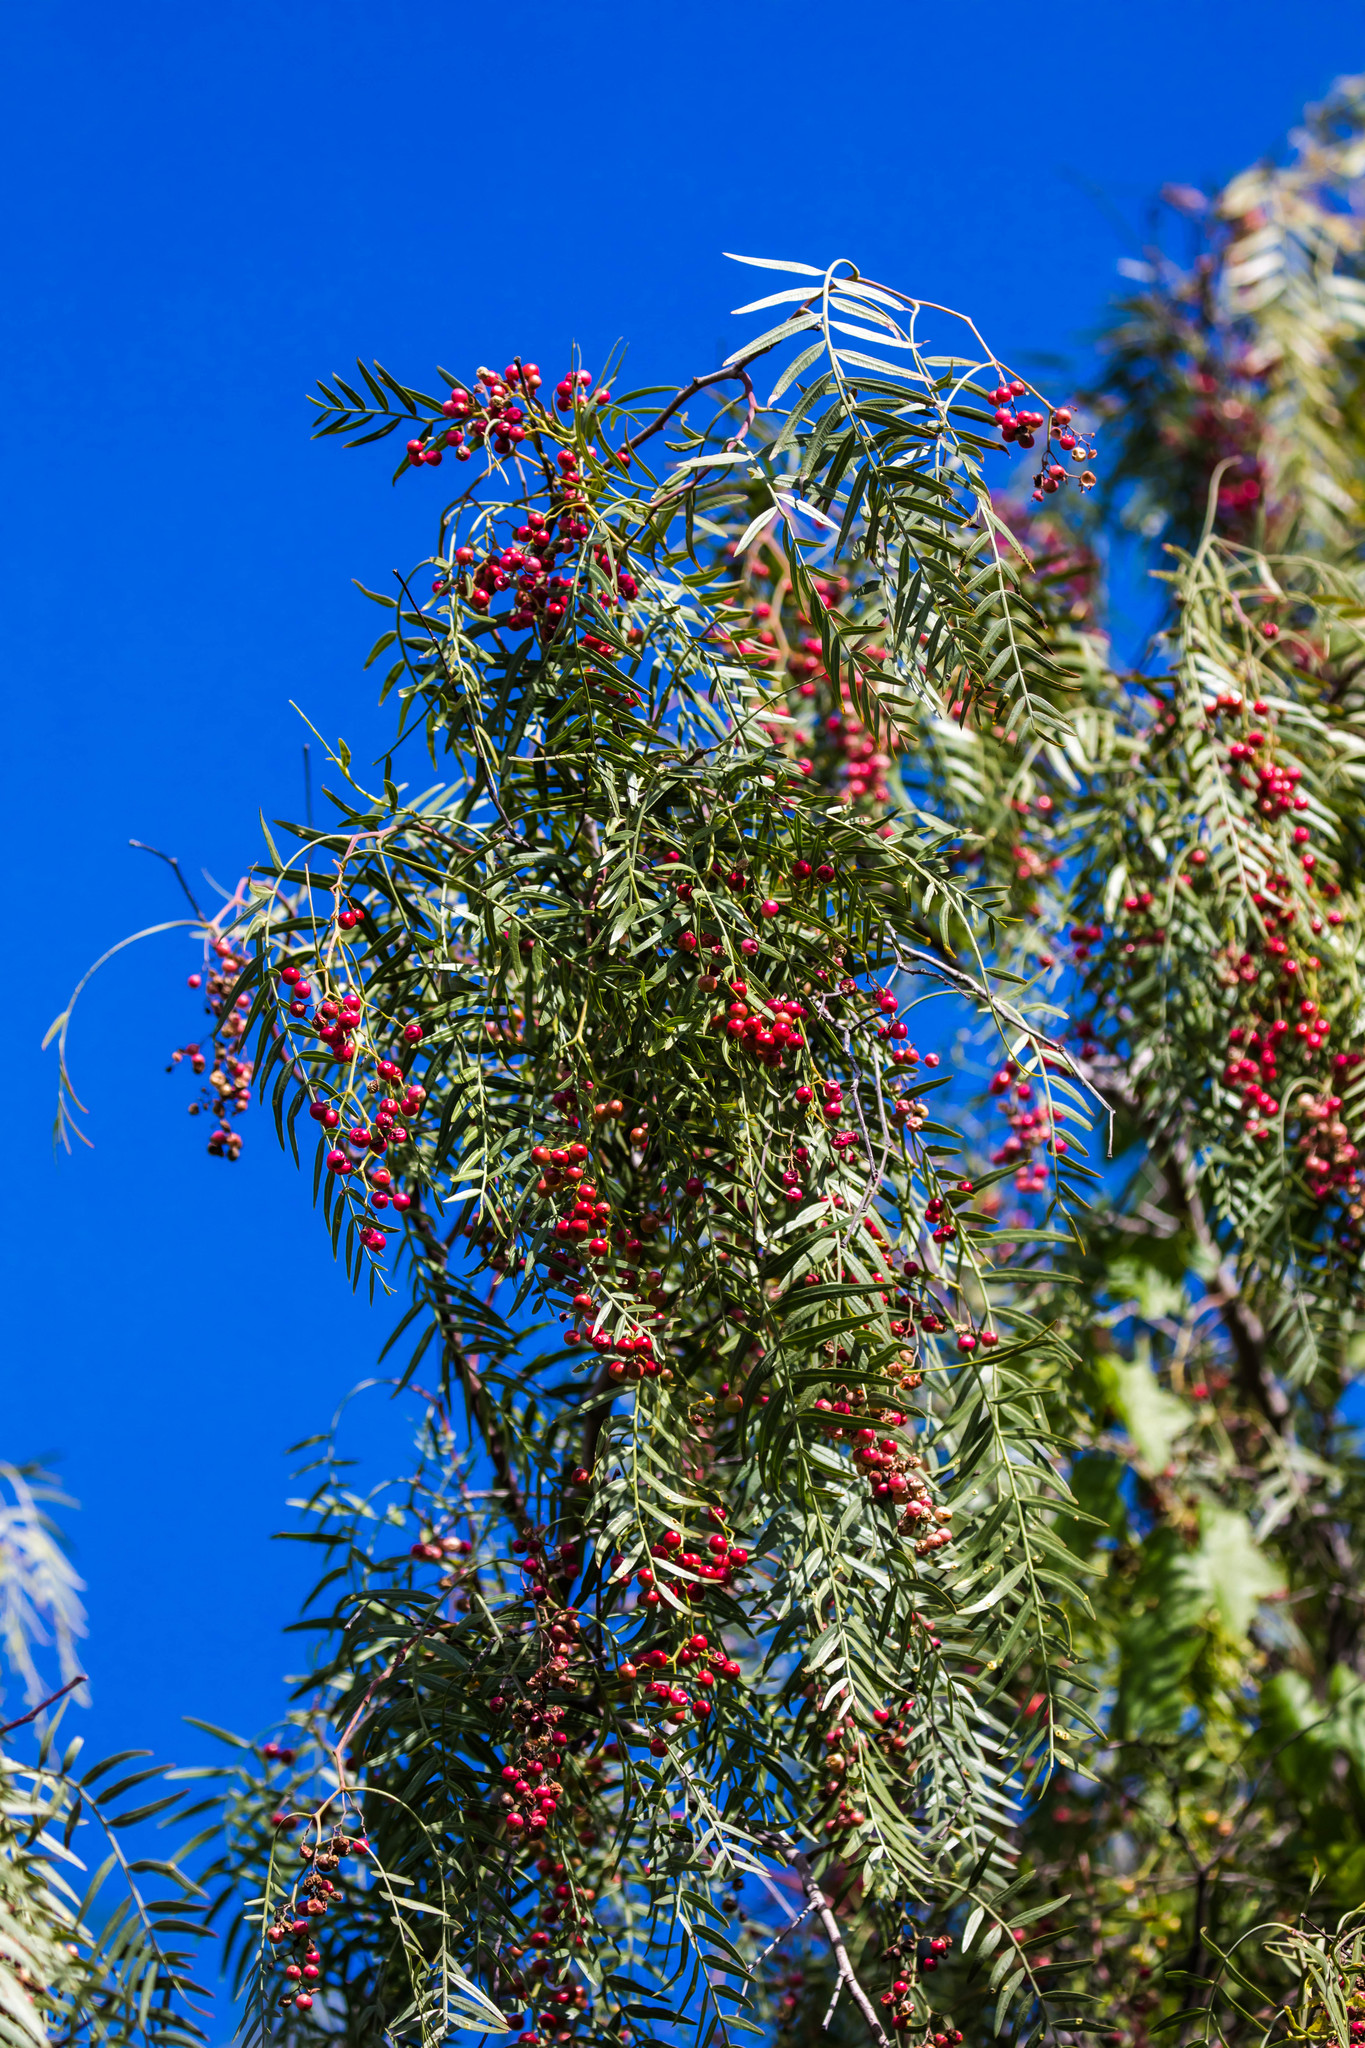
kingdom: Plantae
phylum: Tracheophyta
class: Magnoliopsida
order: Sapindales
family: Anacardiaceae
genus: Schinus
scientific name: Schinus molle
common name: Peruvian peppertree
